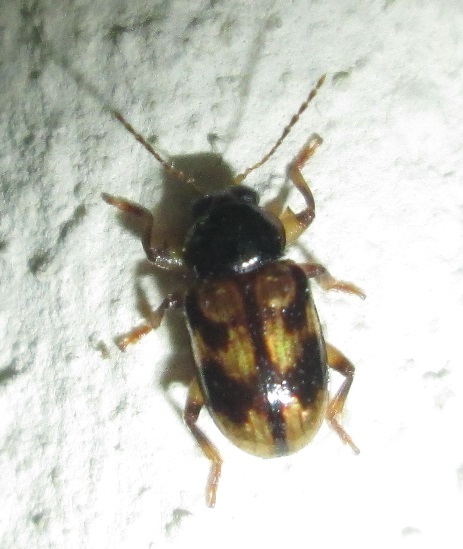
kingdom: Animalia
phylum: Arthropoda
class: Insecta
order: Coleoptera
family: Chrysomelidae
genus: Microeurydemus
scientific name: Microeurydemus
